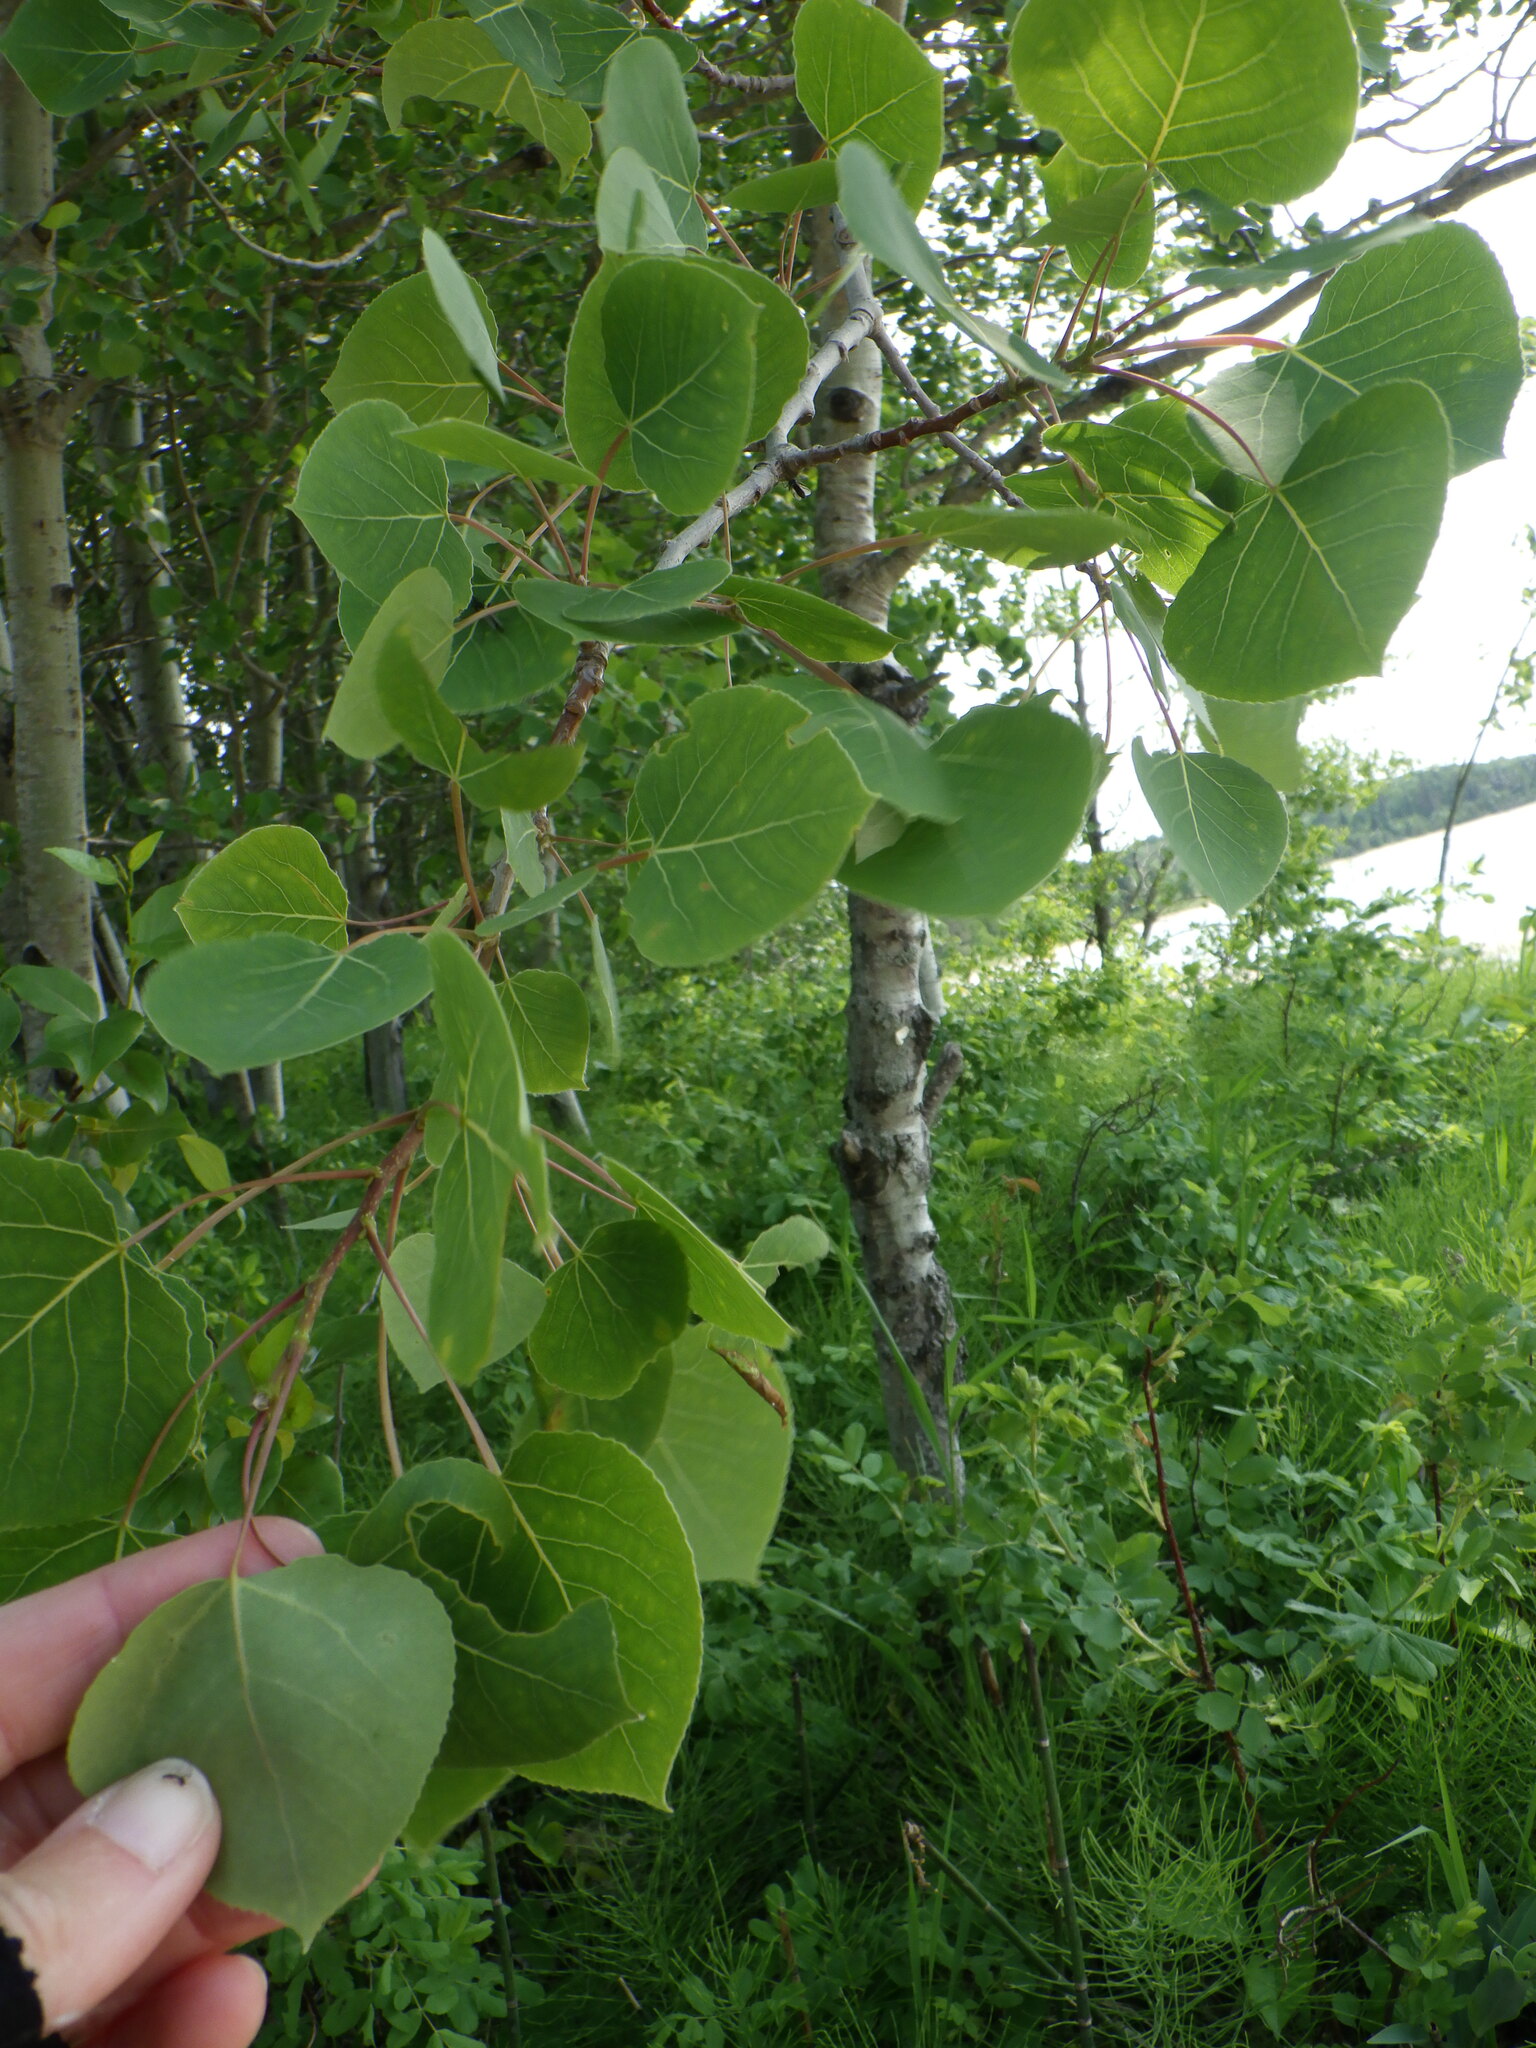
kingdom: Plantae
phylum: Tracheophyta
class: Magnoliopsida
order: Malpighiales
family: Salicaceae
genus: Populus
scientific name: Populus tremuloides
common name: Quaking aspen
